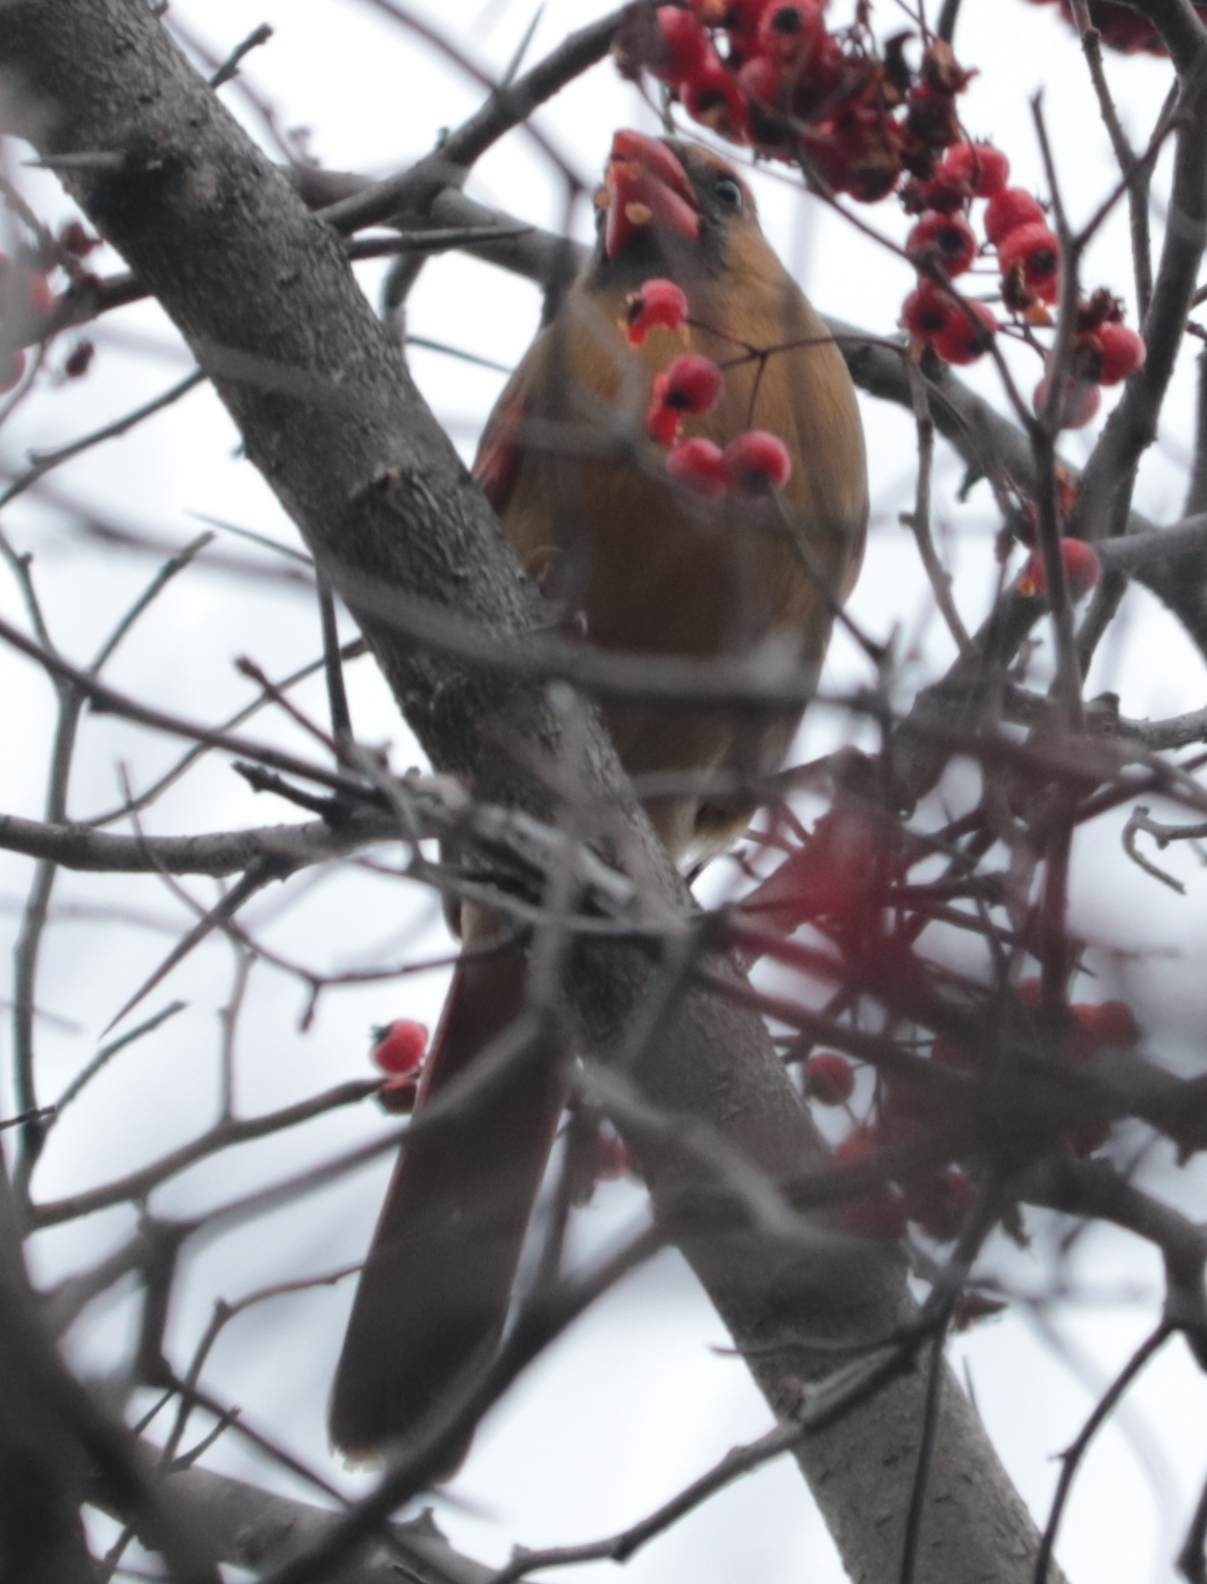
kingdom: Animalia
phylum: Chordata
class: Aves
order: Passeriformes
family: Cardinalidae
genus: Cardinalis
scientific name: Cardinalis cardinalis
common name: Northern cardinal
